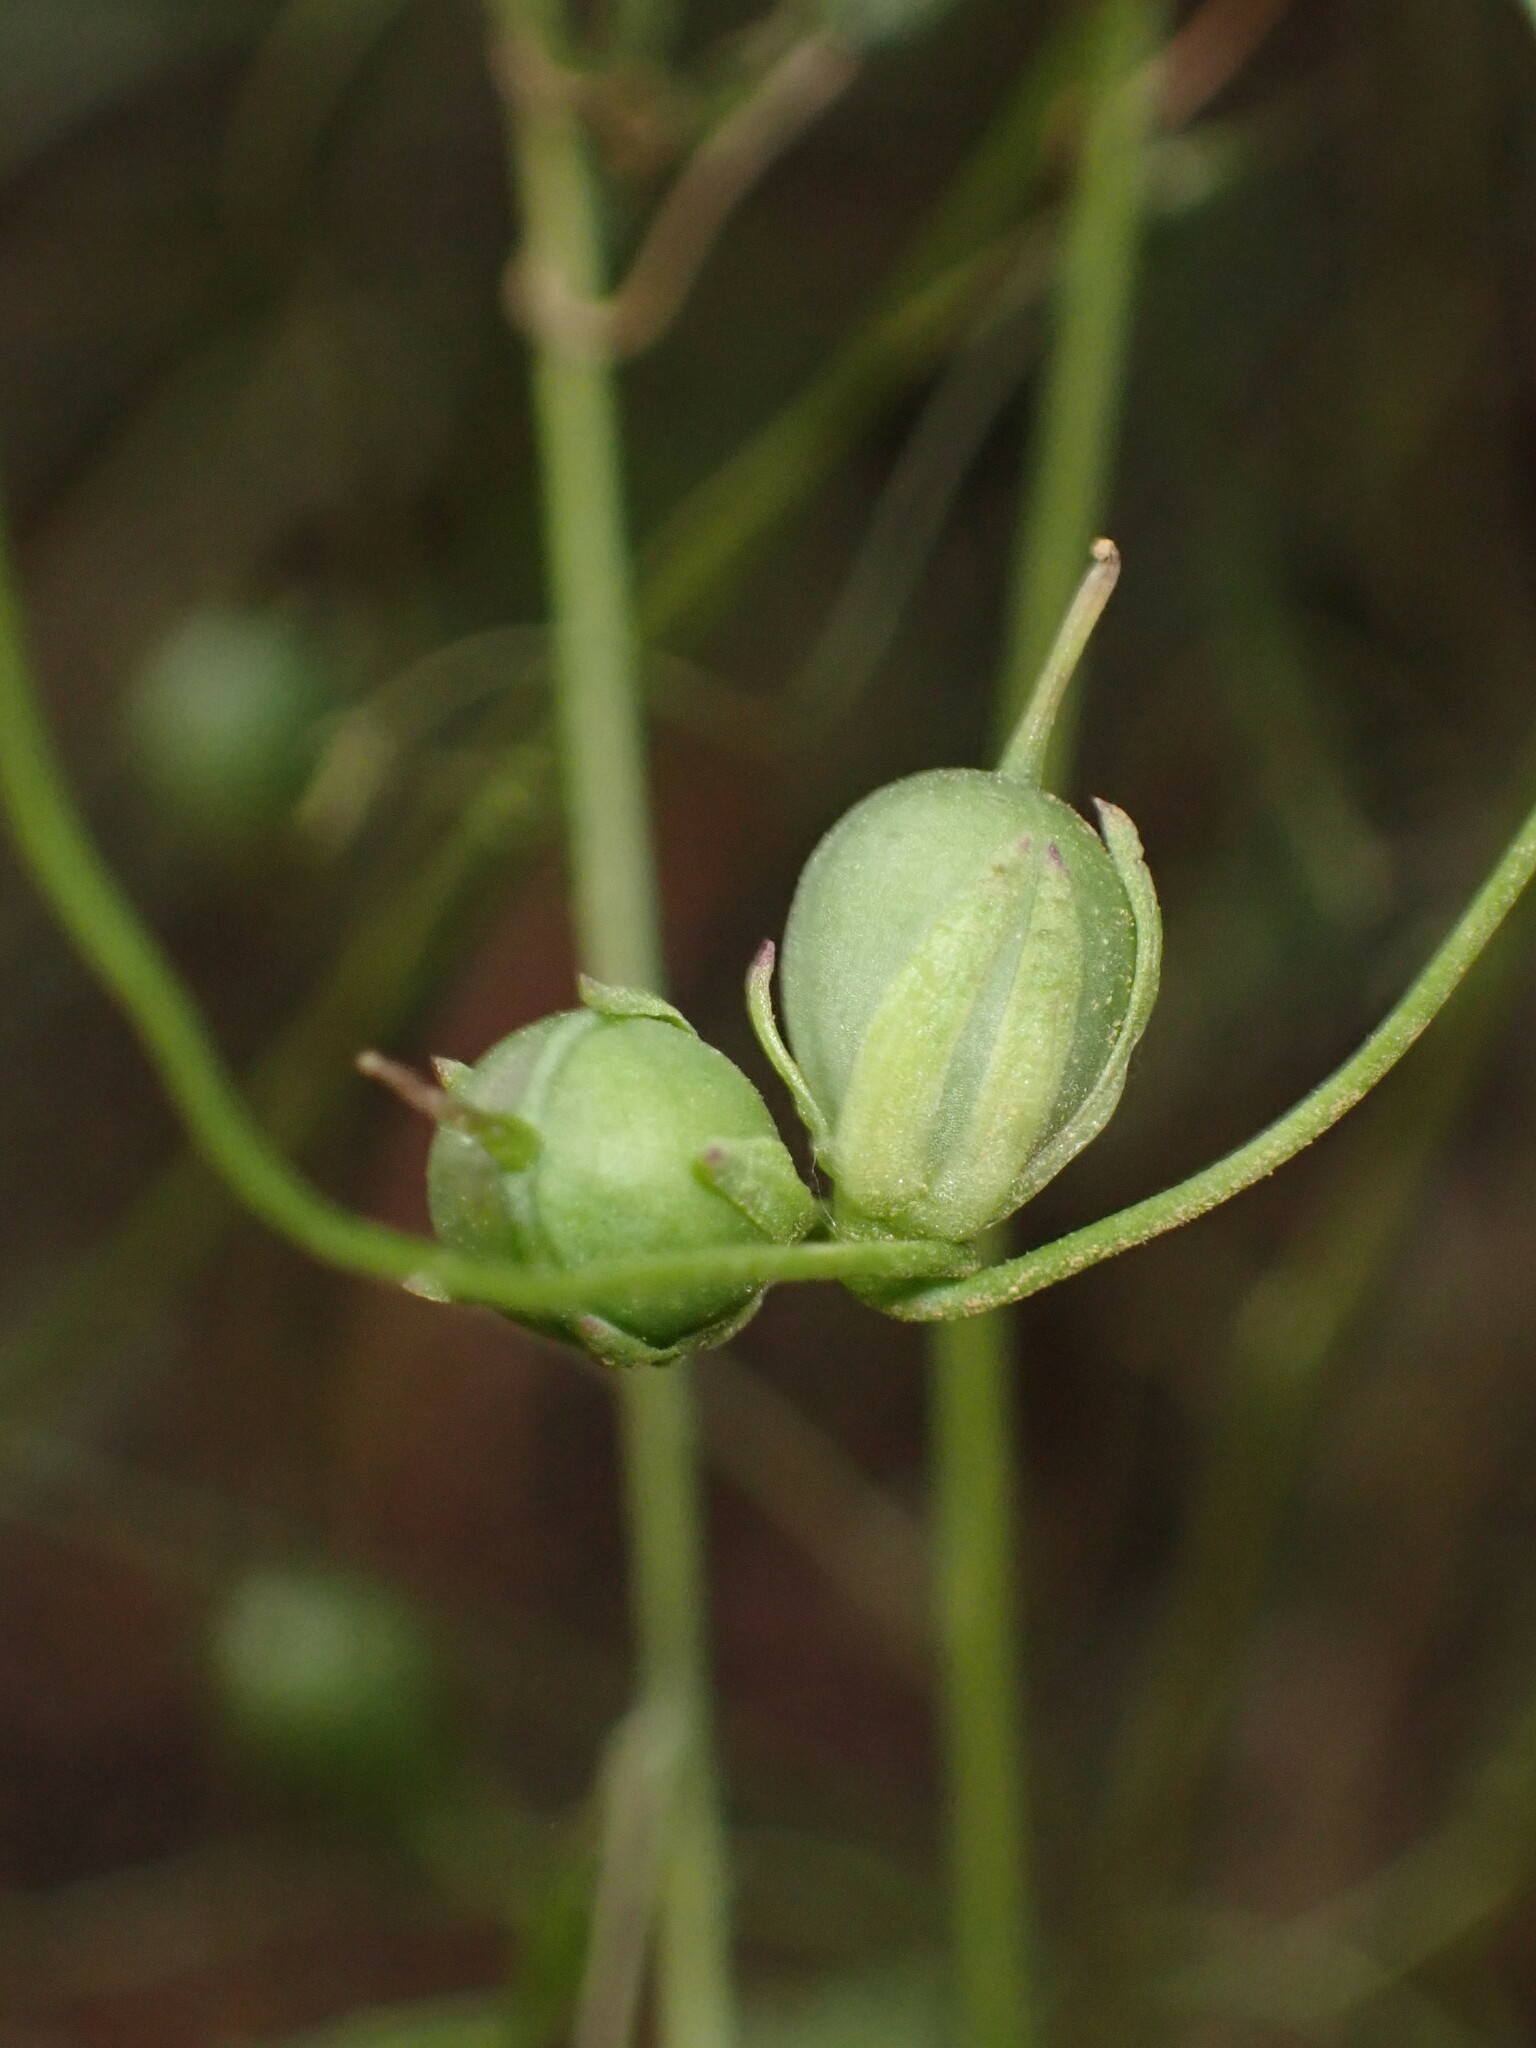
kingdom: Plantae
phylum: Tracheophyta
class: Magnoliopsida
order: Lamiales
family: Plantaginaceae
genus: Neogaerrhinum
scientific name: Neogaerrhinum strictum
